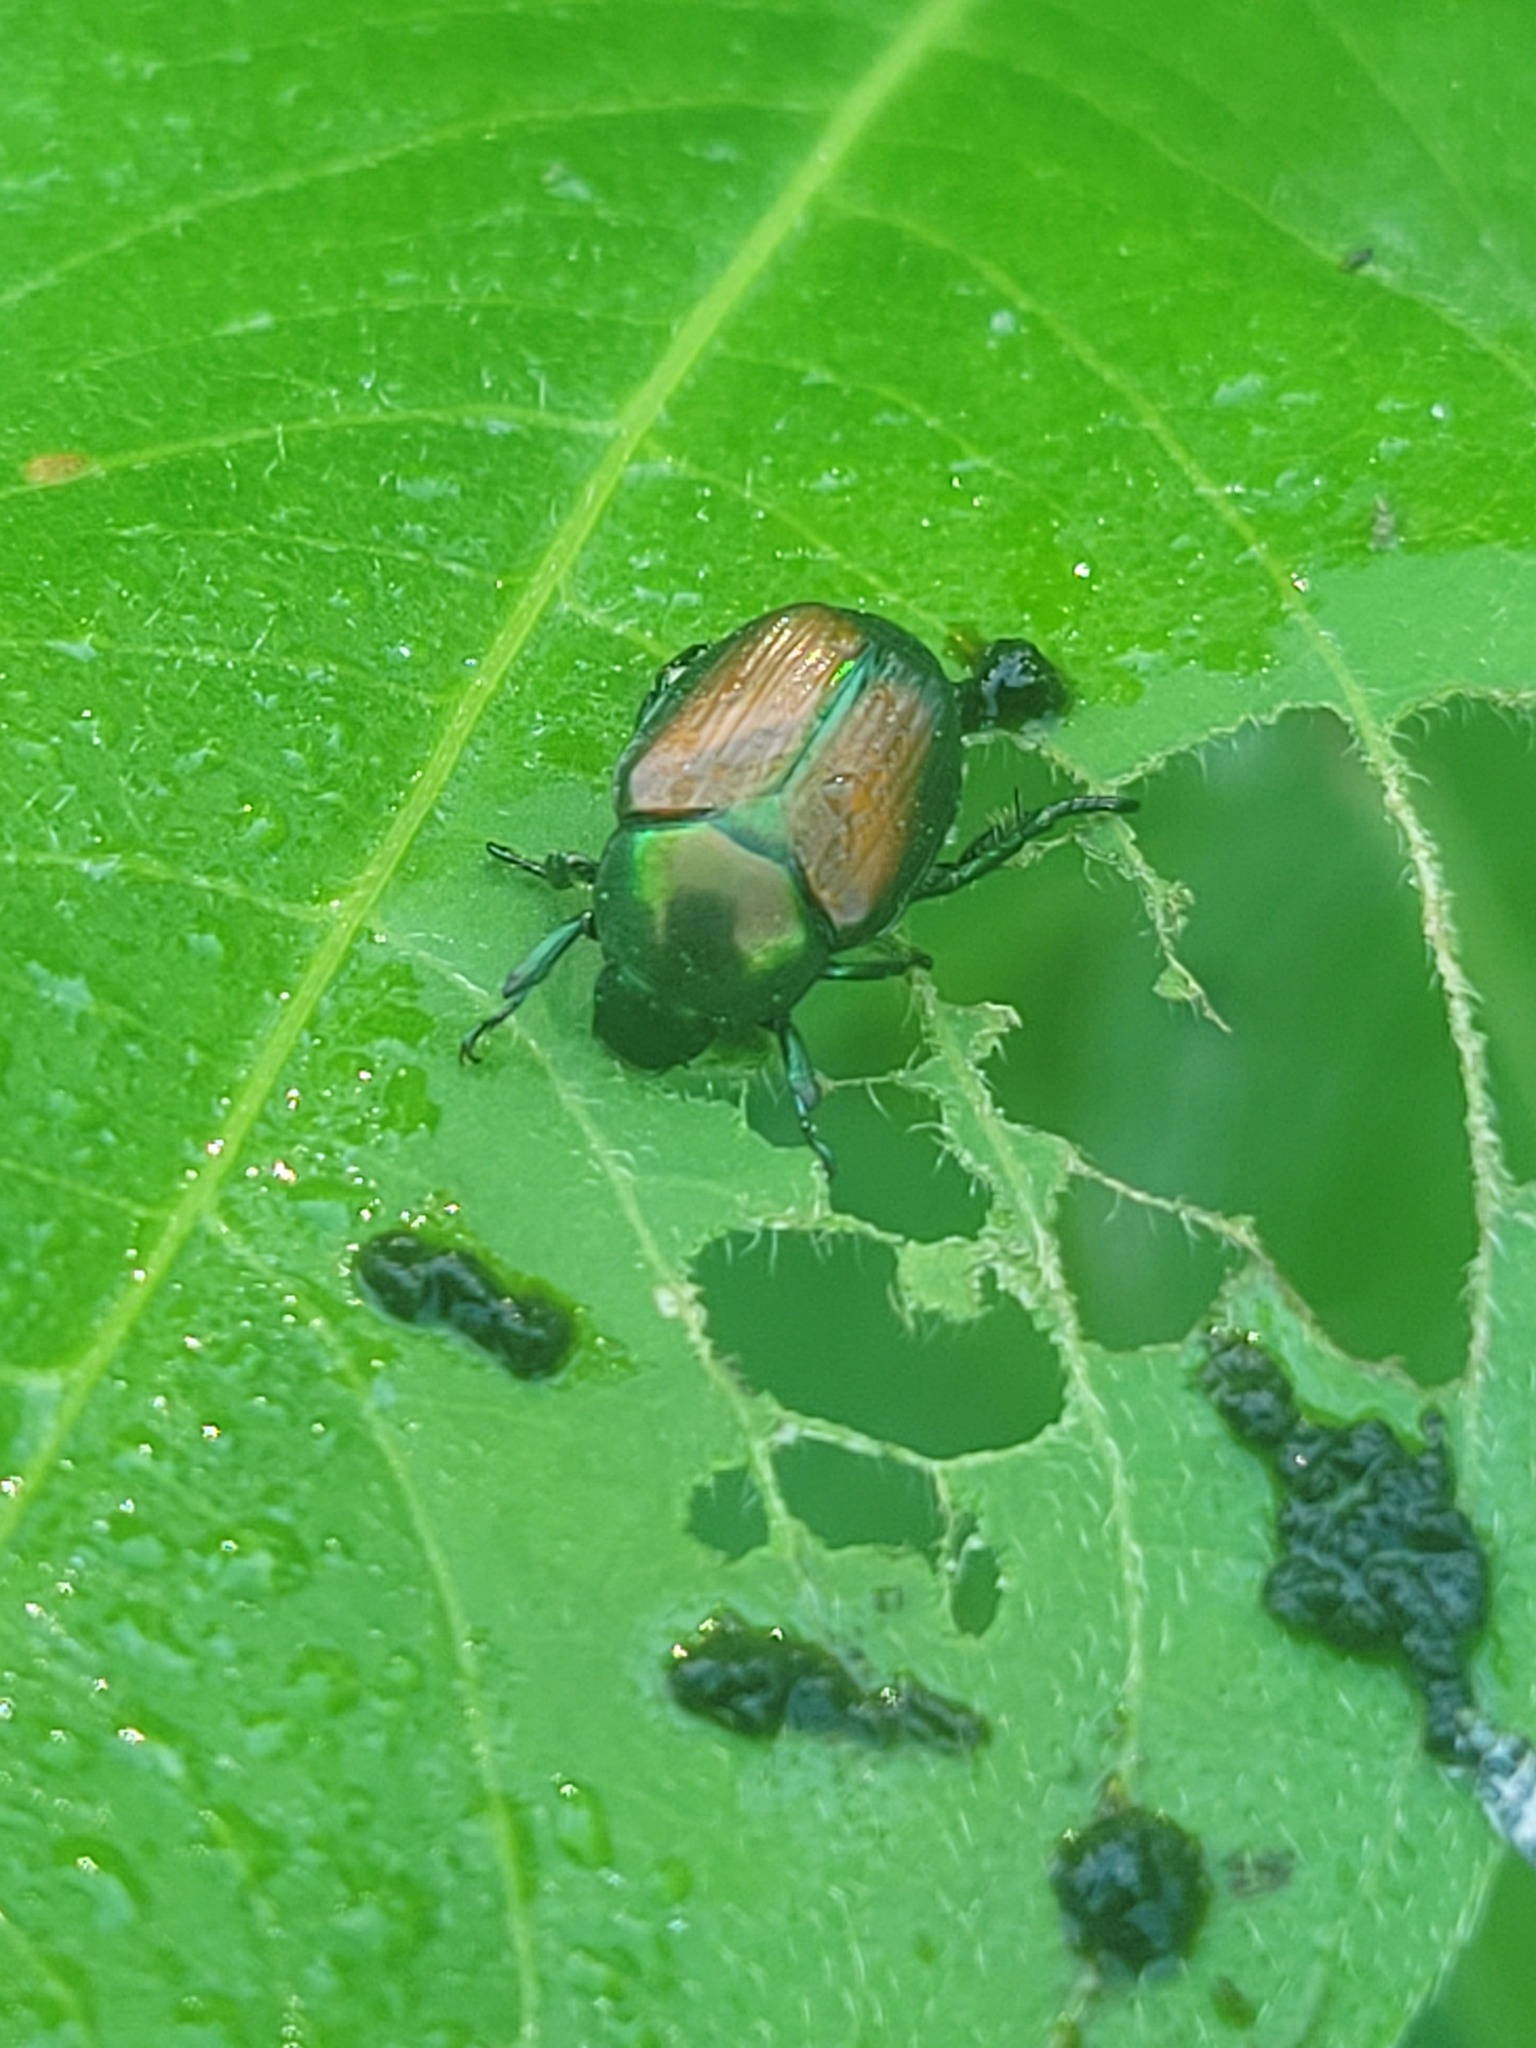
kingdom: Animalia
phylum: Arthropoda
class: Insecta
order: Coleoptera
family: Scarabaeidae
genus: Popillia
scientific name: Popillia japonica
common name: Japanese beetle
